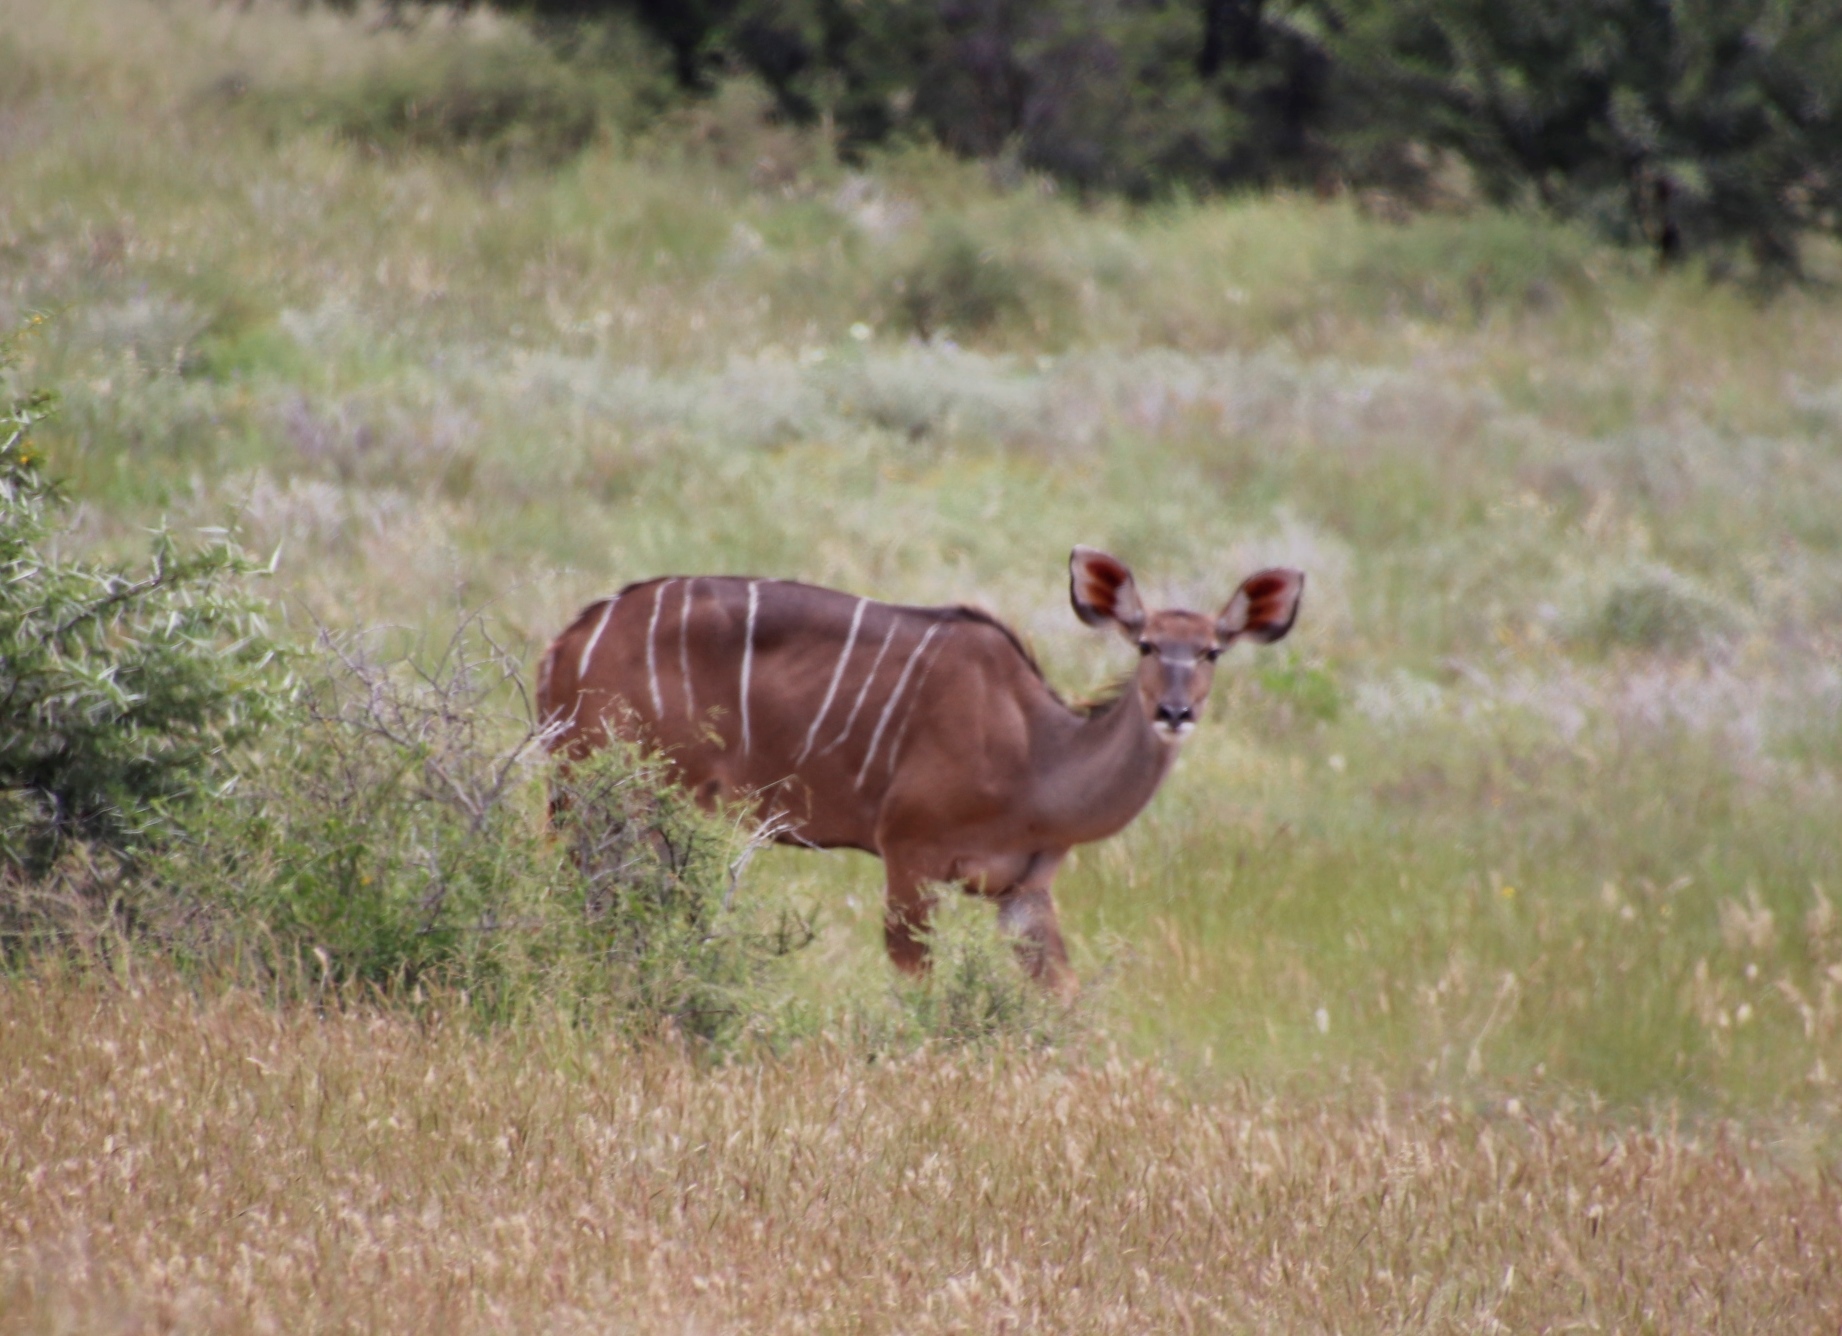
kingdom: Animalia
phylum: Chordata
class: Mammalia
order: Artiodactyla
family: Bovidae
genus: Tragelaphus
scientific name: Tragelaphus strepsiceros
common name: Greater kudu
